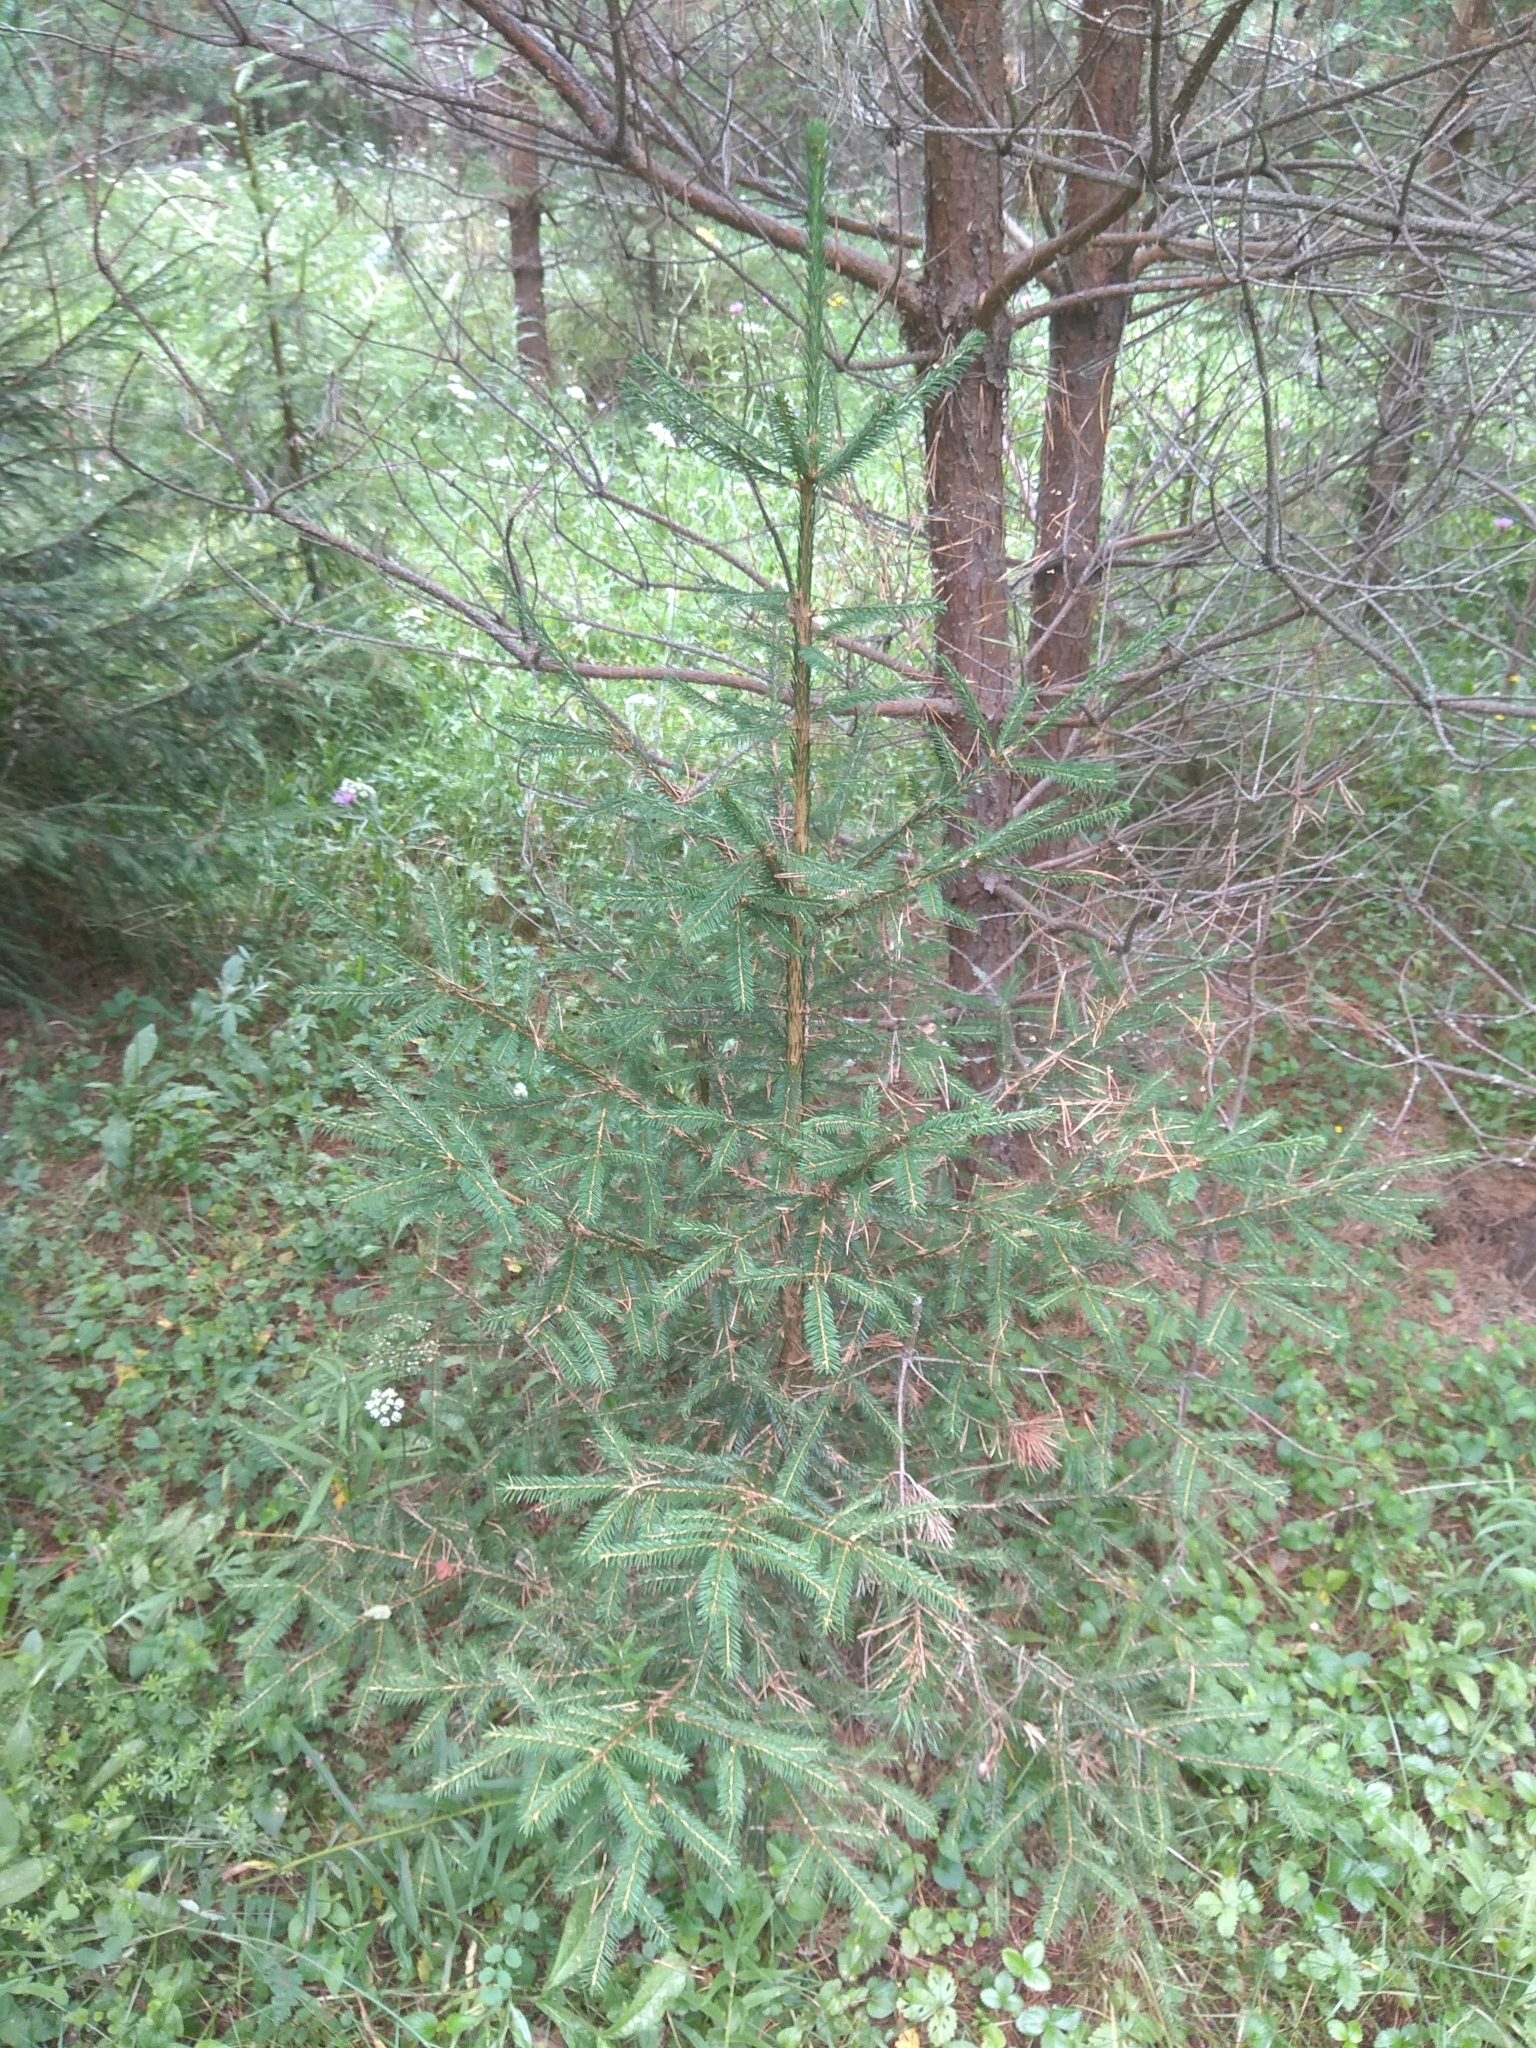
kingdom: Plantae
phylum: Tracheophyta
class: Pinopsida
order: Pinales
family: Pinaceae
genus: Picea
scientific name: Picea abies
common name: Norway spruce
